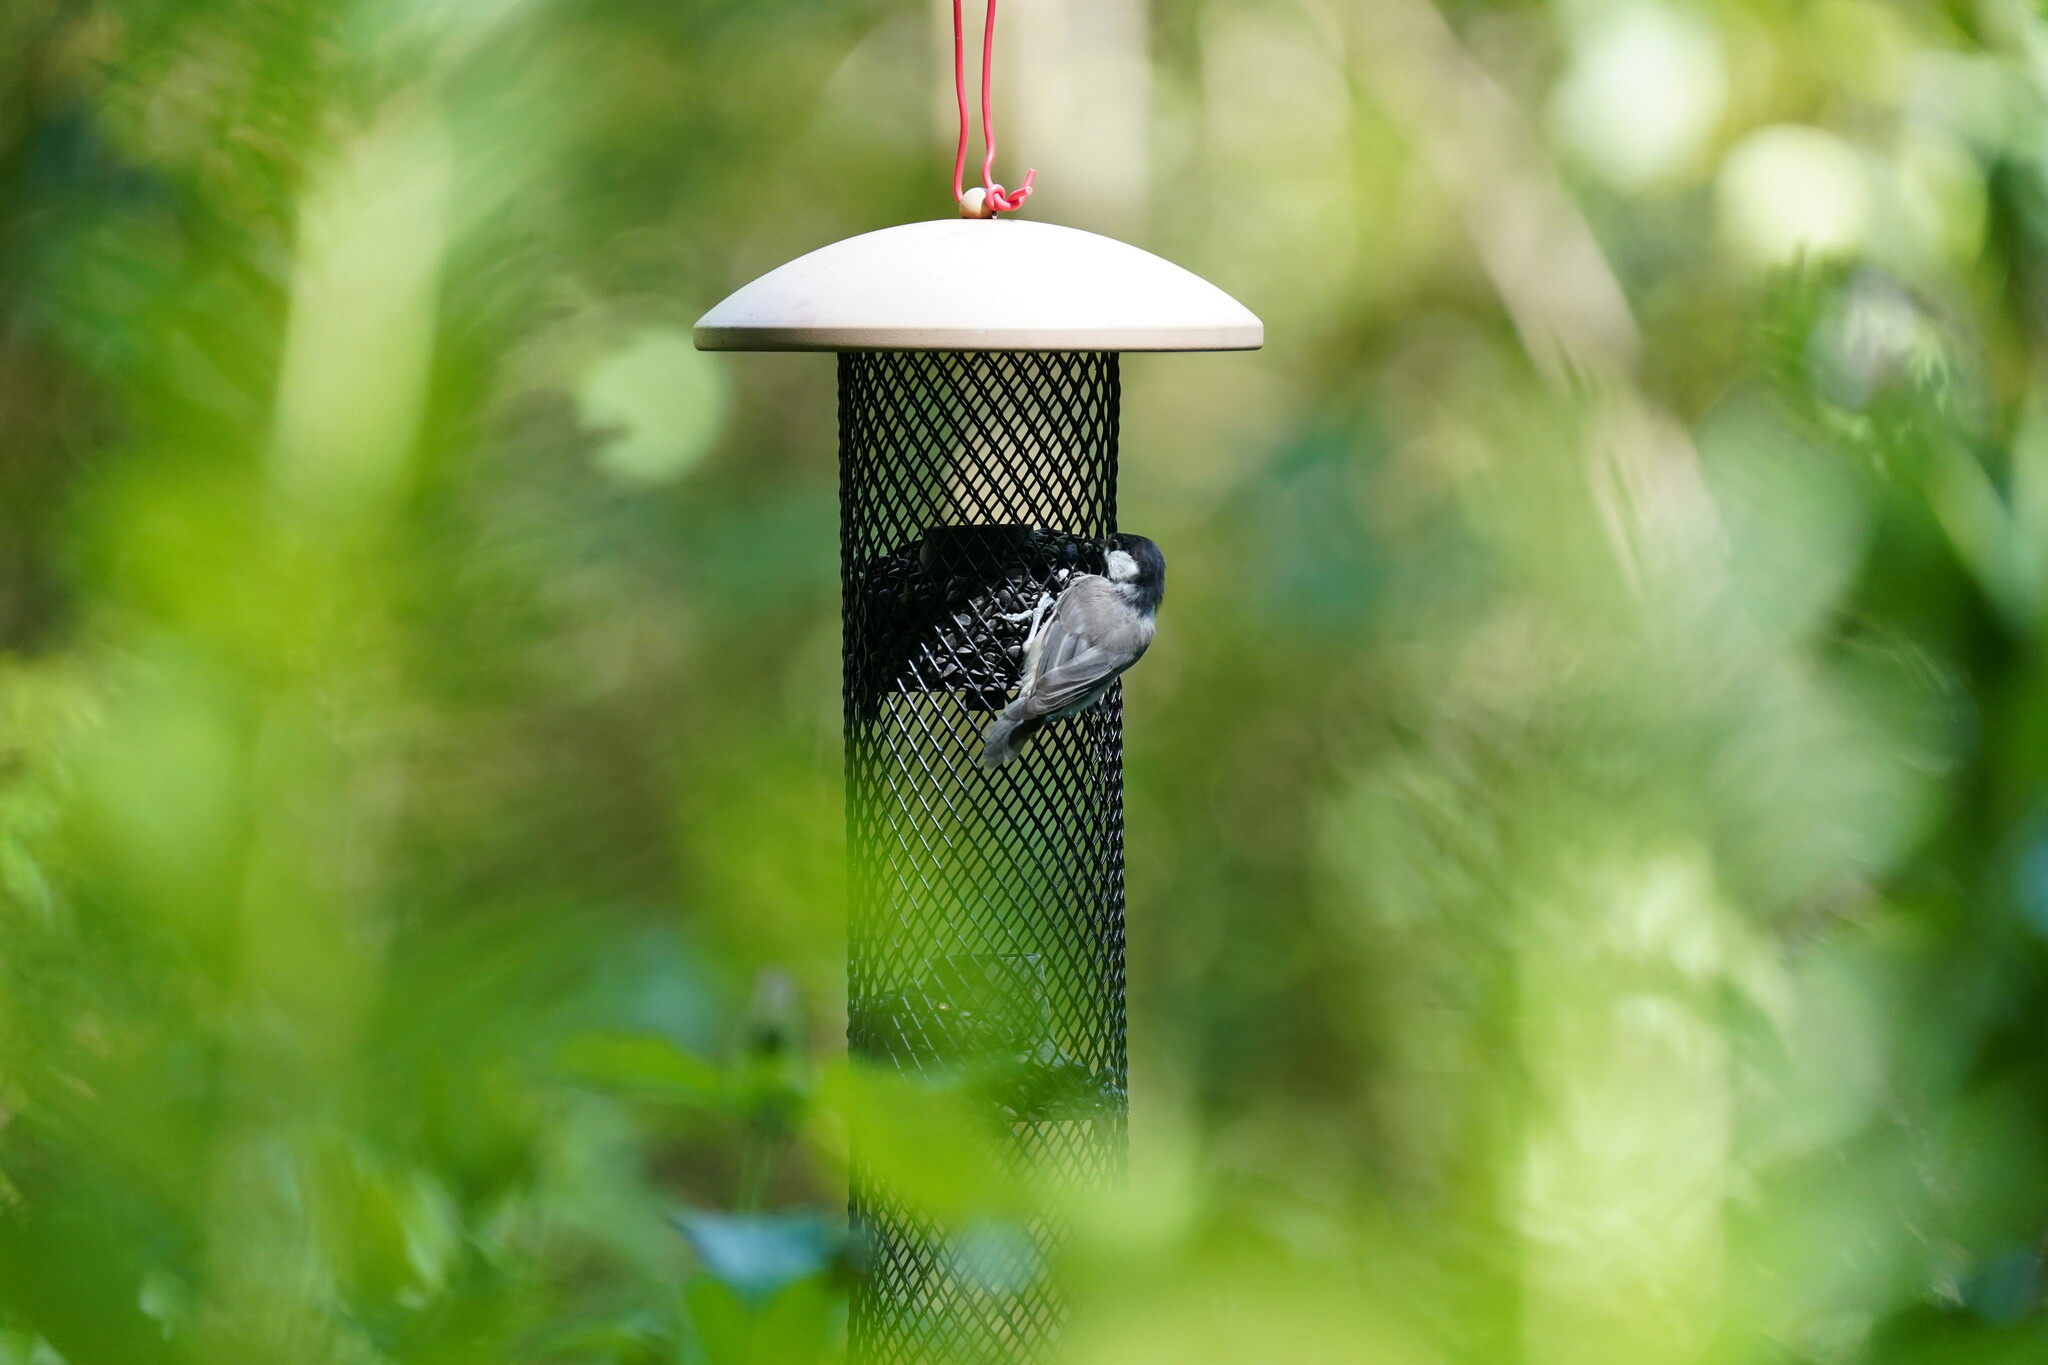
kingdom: Animalia
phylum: Chordata
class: Aves
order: Passeriformes
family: Paridae
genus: Poecile
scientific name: Poecile carolinensis
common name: Carolina chickadee
